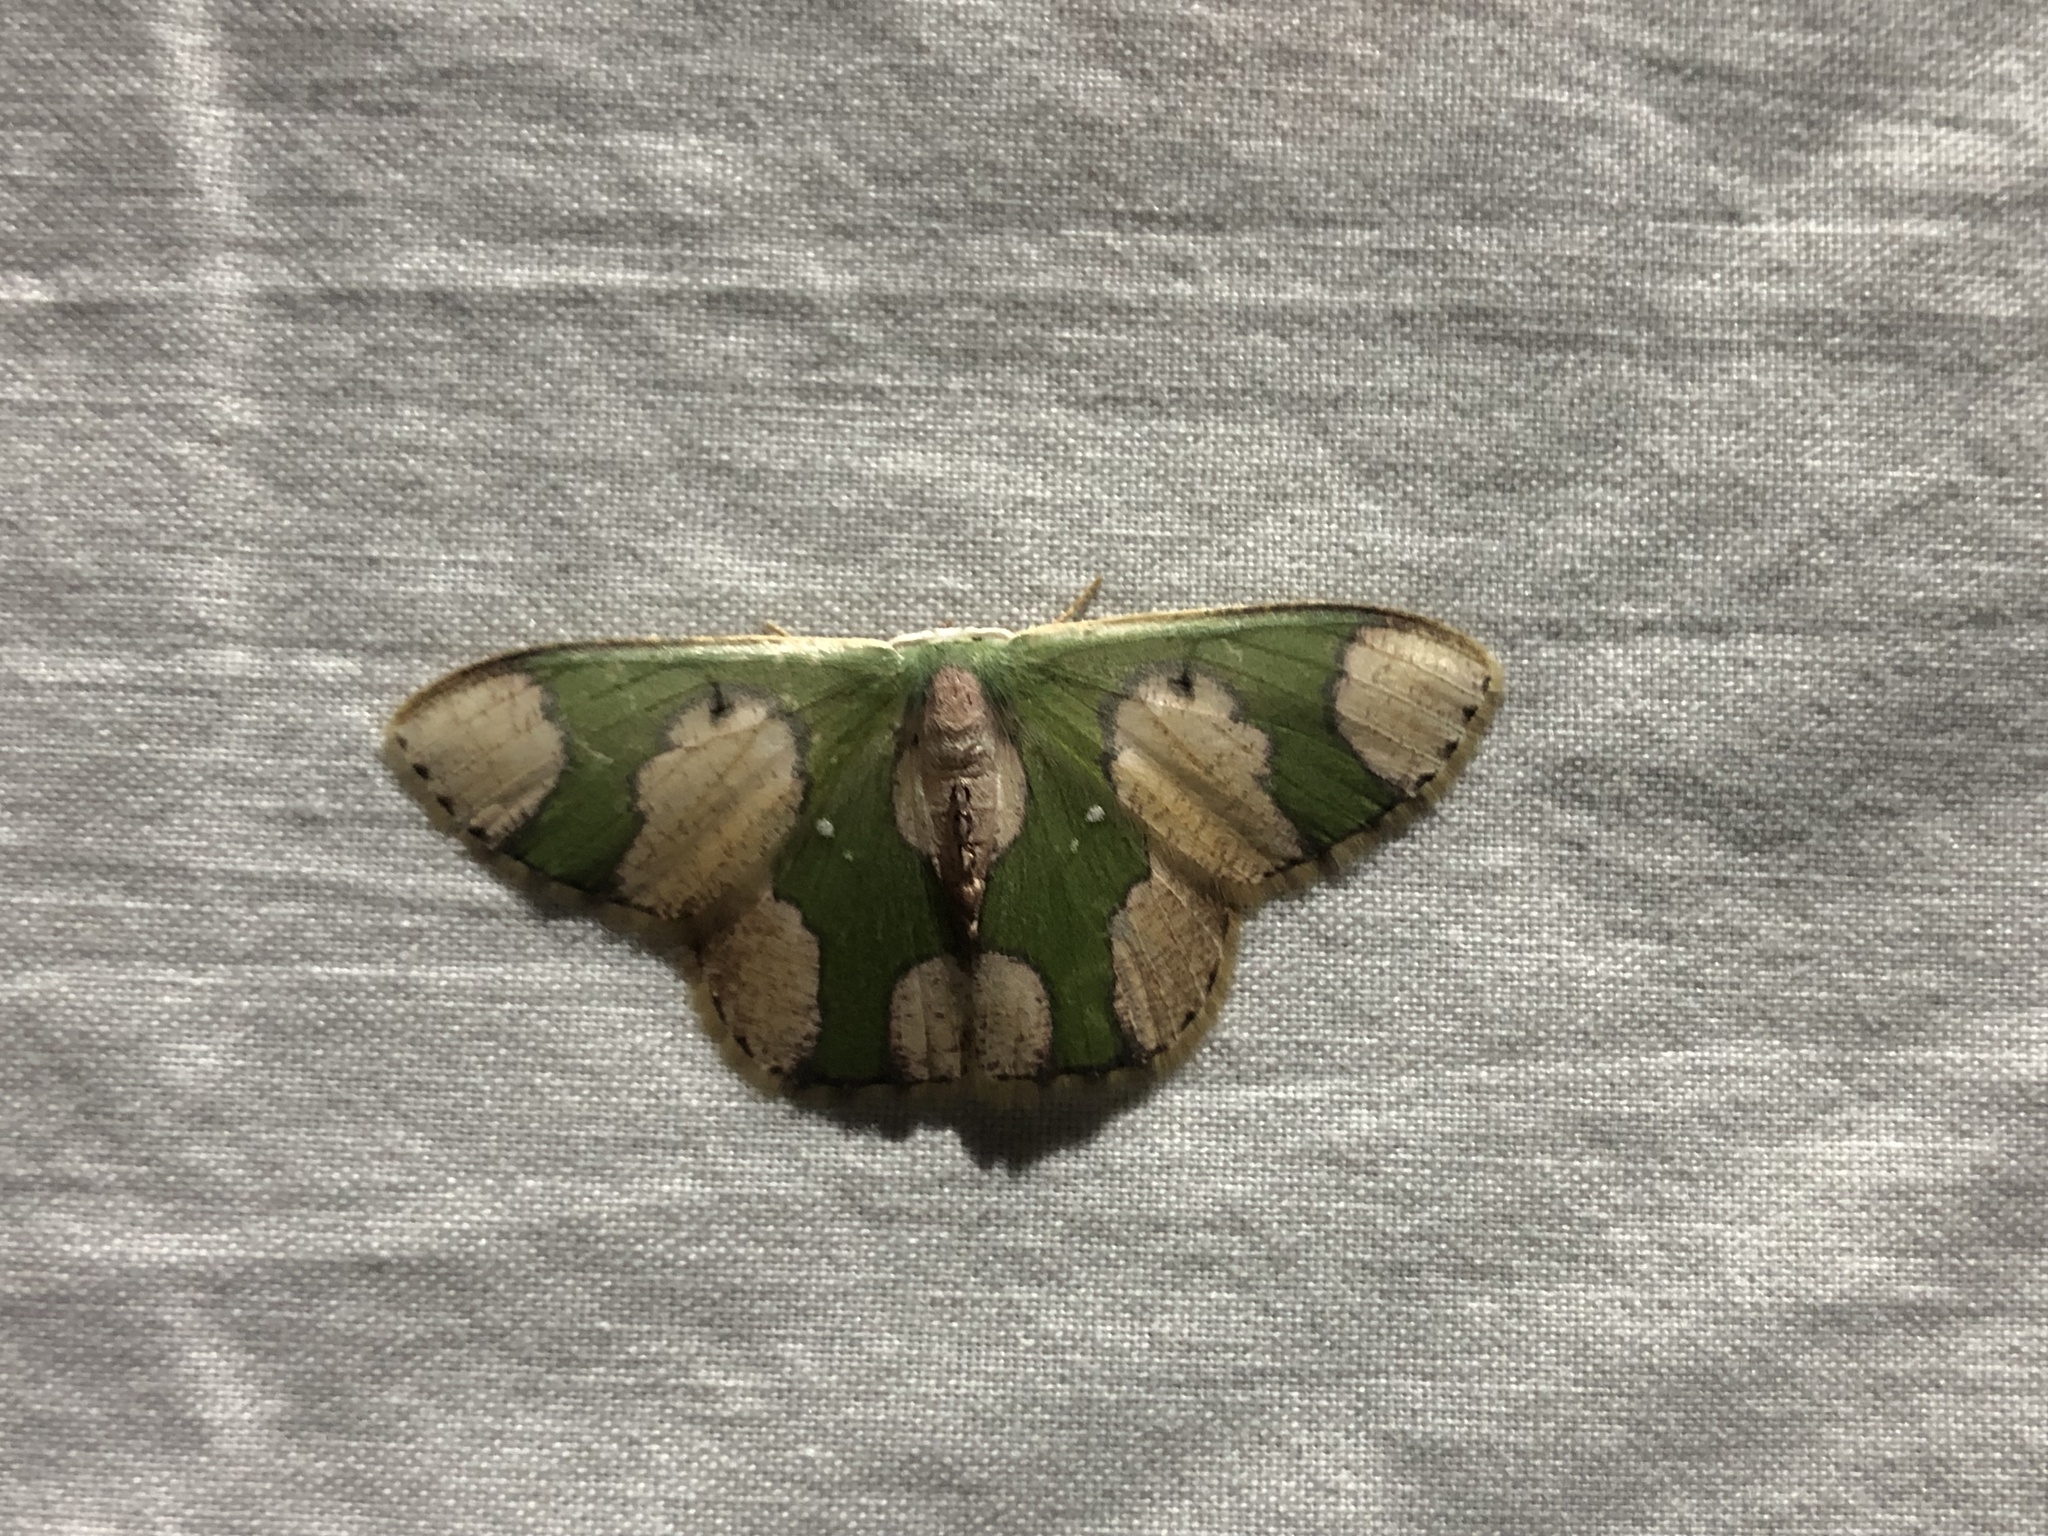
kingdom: Animalia
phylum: Arthropoda
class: Insecta
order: Lepidoptera
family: Geometridae
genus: Oospila
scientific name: Oospila albicoma
